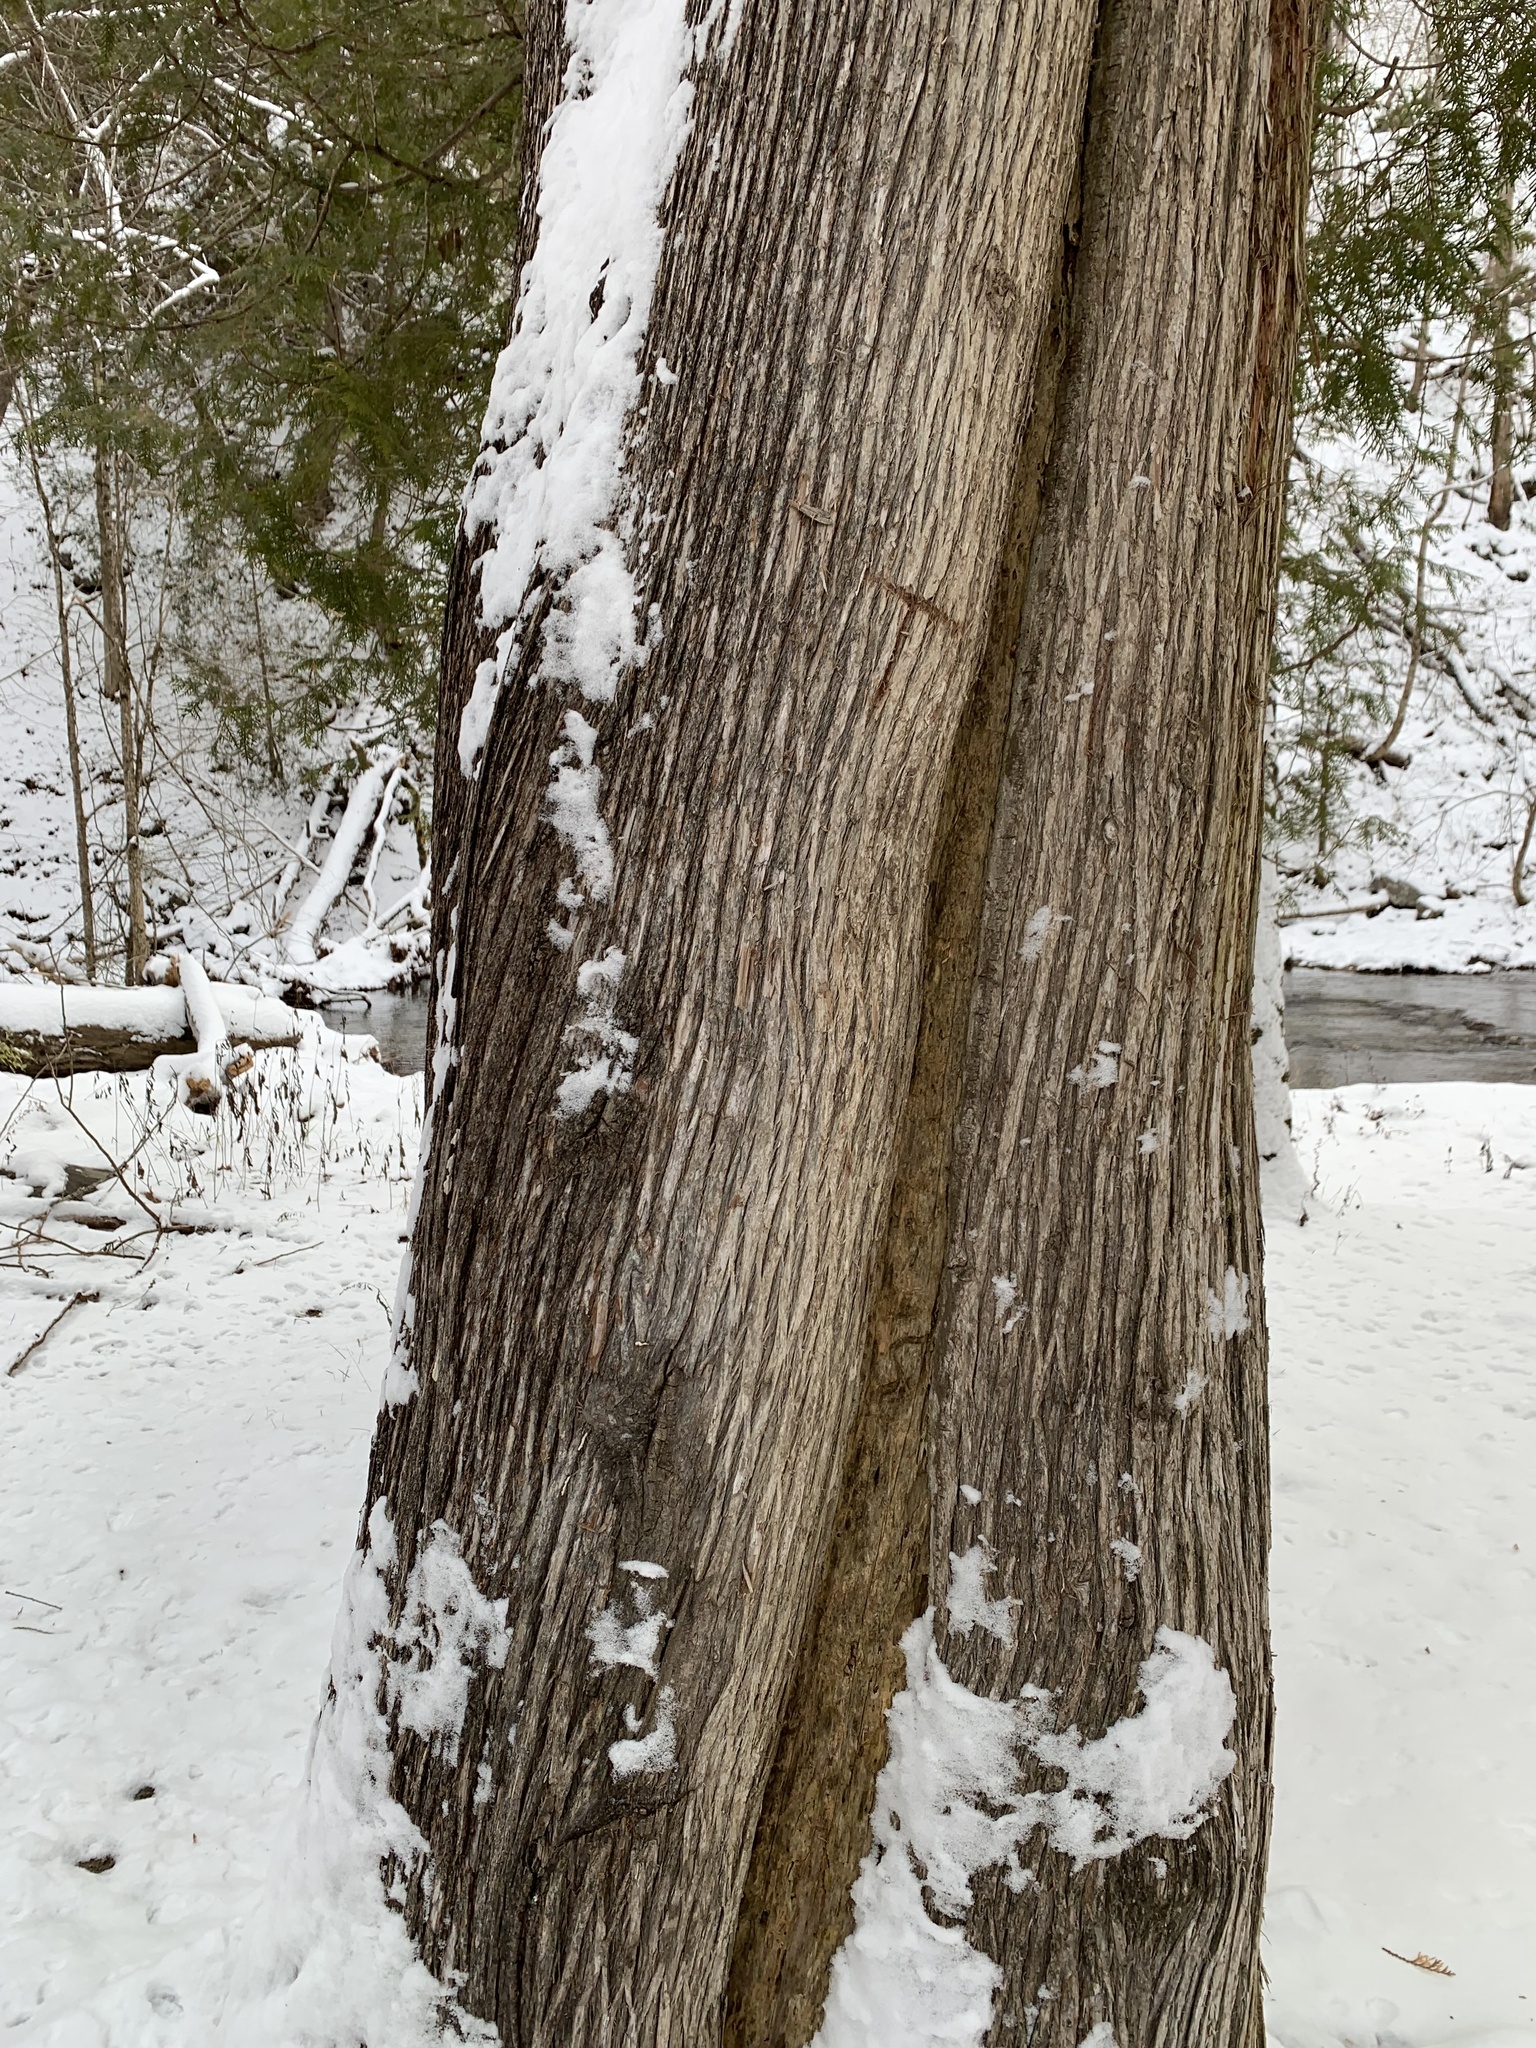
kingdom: Plantae
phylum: Tracheophyta
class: Pinopsida
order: Pinales
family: Cupressaceae
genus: Thuja
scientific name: Thuja occidentalis
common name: Northern white-cedar
